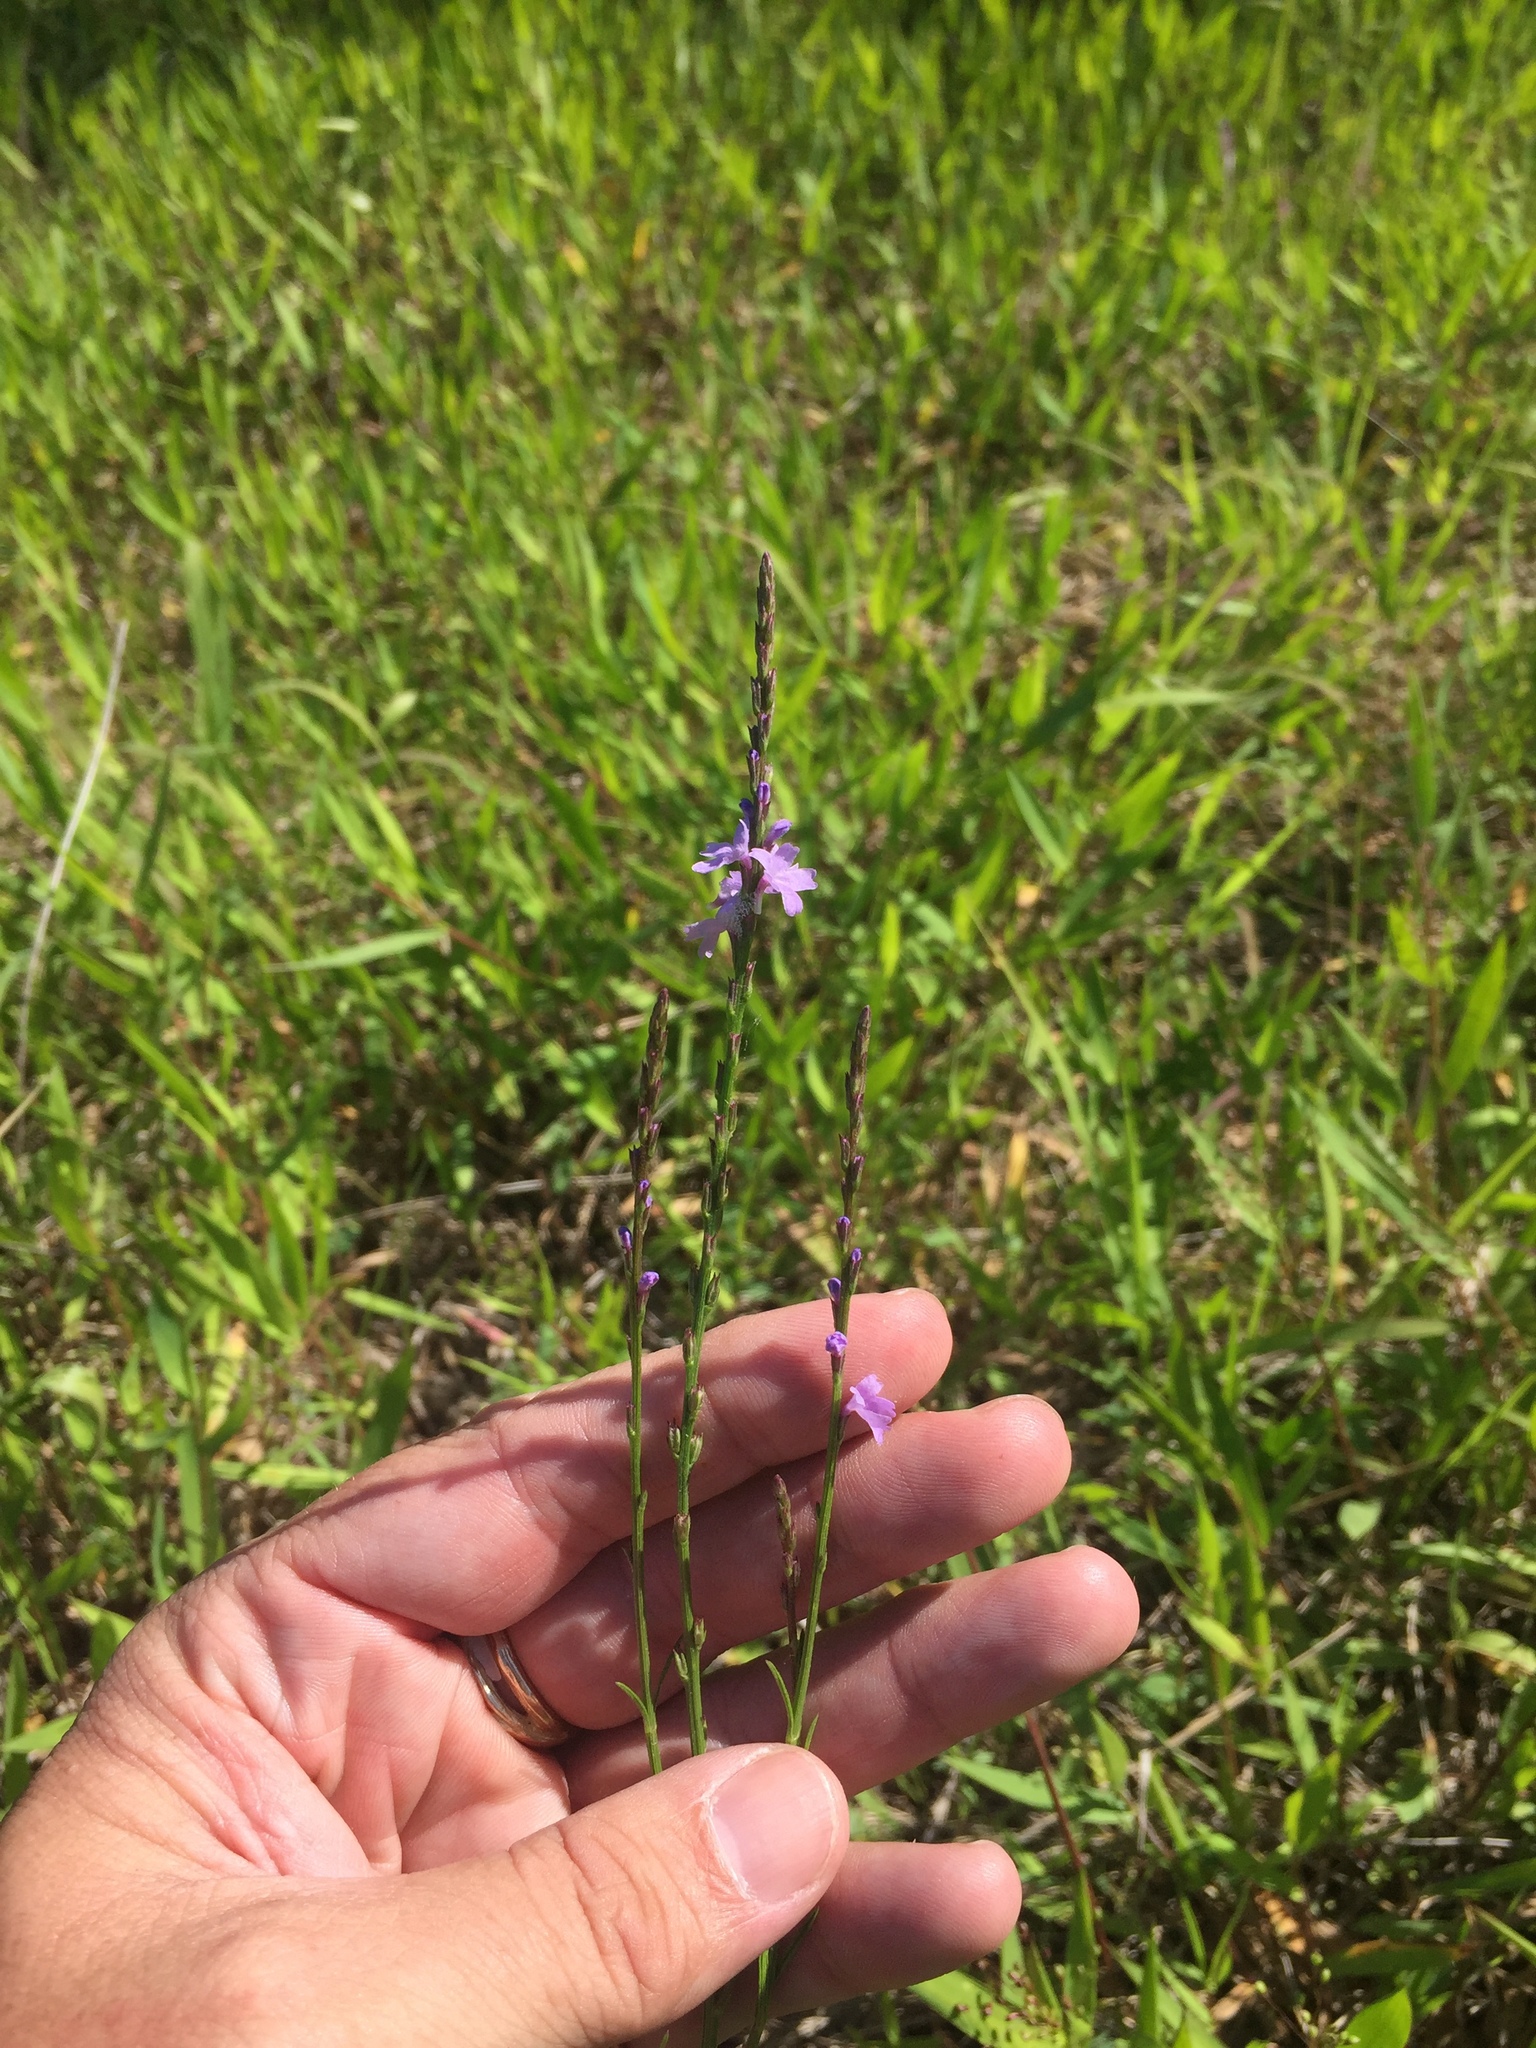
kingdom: Plantae
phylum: Tracheophyta
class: Magnoliopsida
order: Lamiales
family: Verbenaceae
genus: Verbena
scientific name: Verbena halei
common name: Texas vervain
